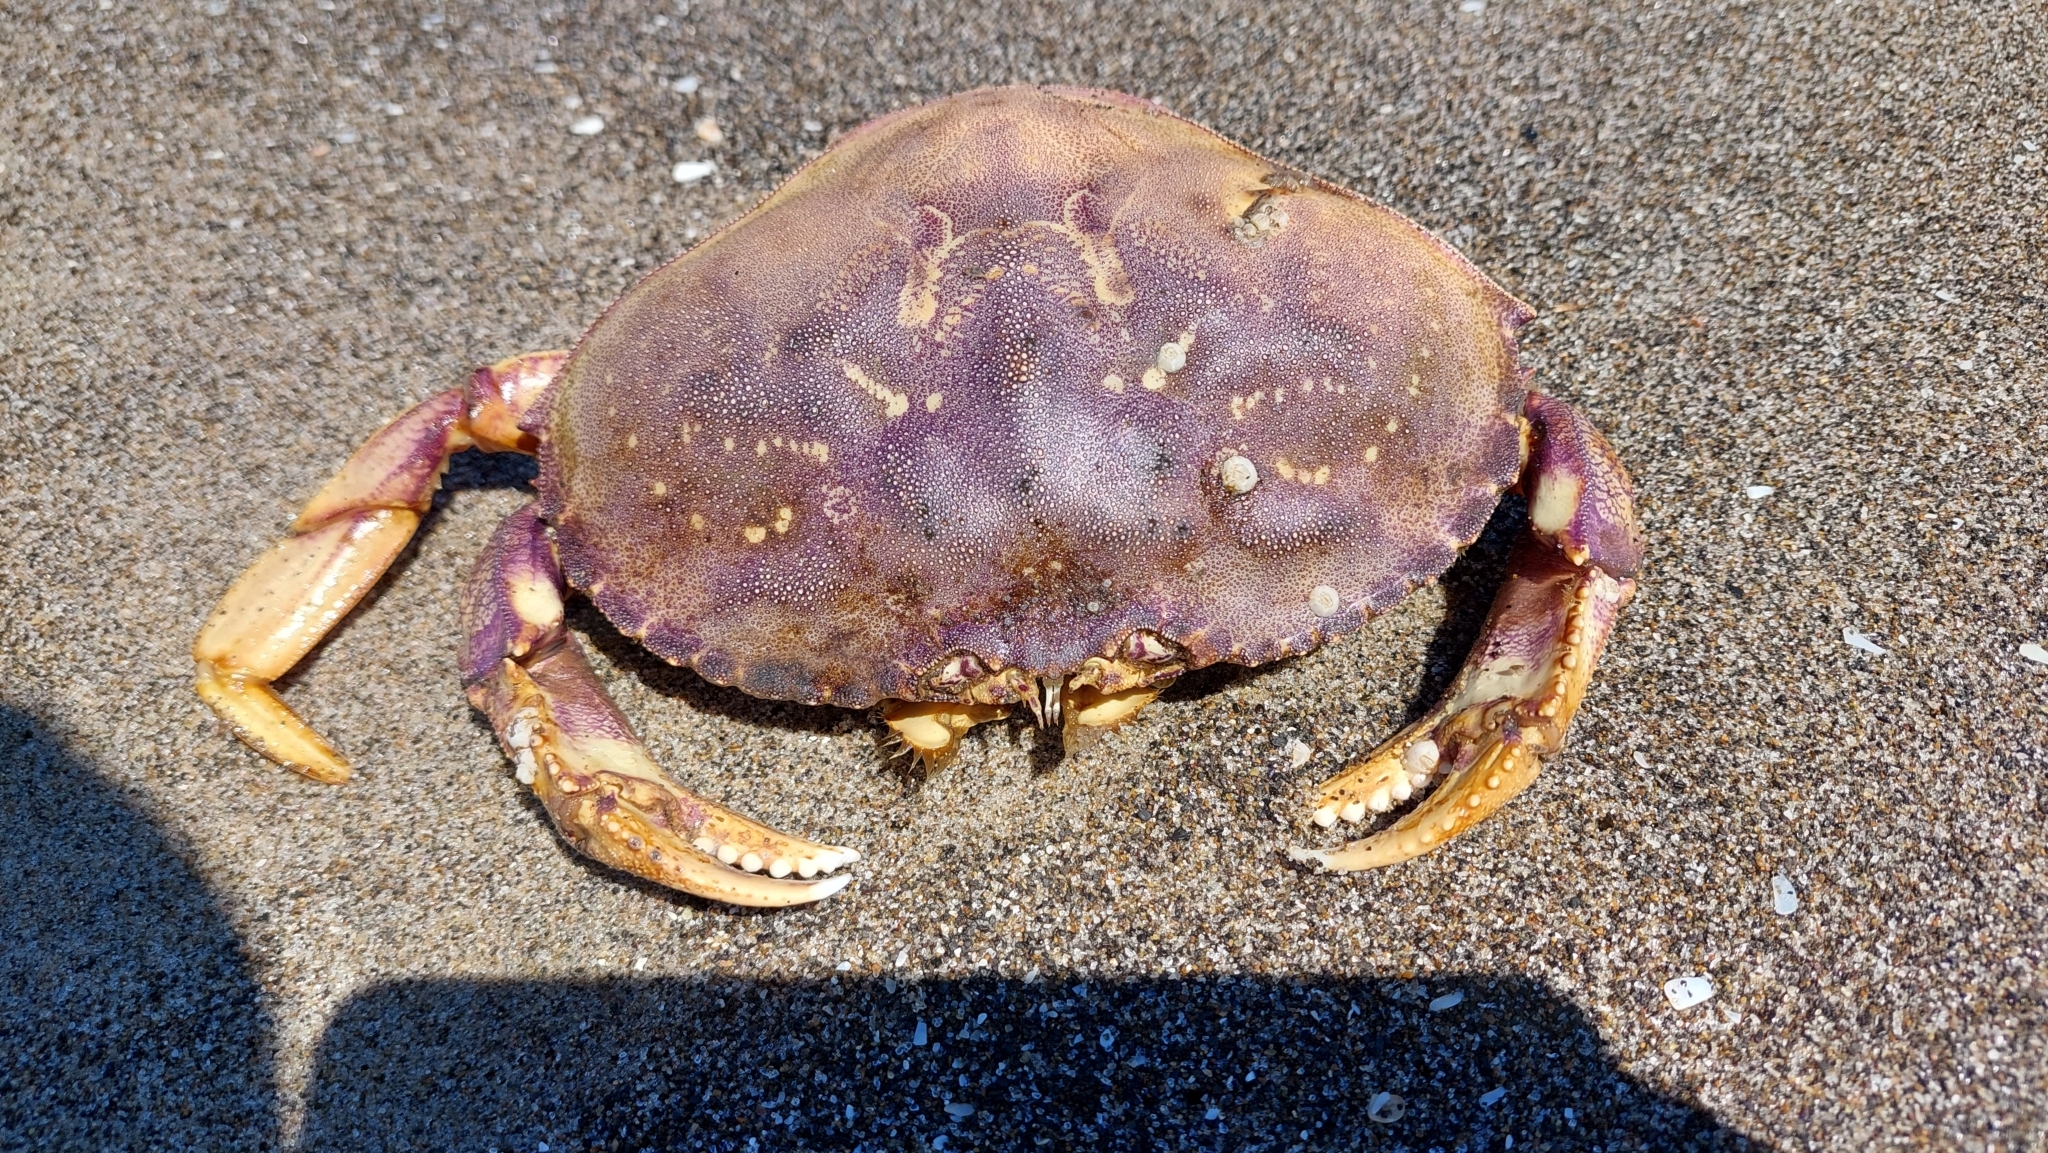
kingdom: Animalia
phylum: Arthropoda
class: Malacostraca
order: Decapoda
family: Cancridae
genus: Metacarcinus
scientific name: Metacarcinus magister
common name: Californian crab
